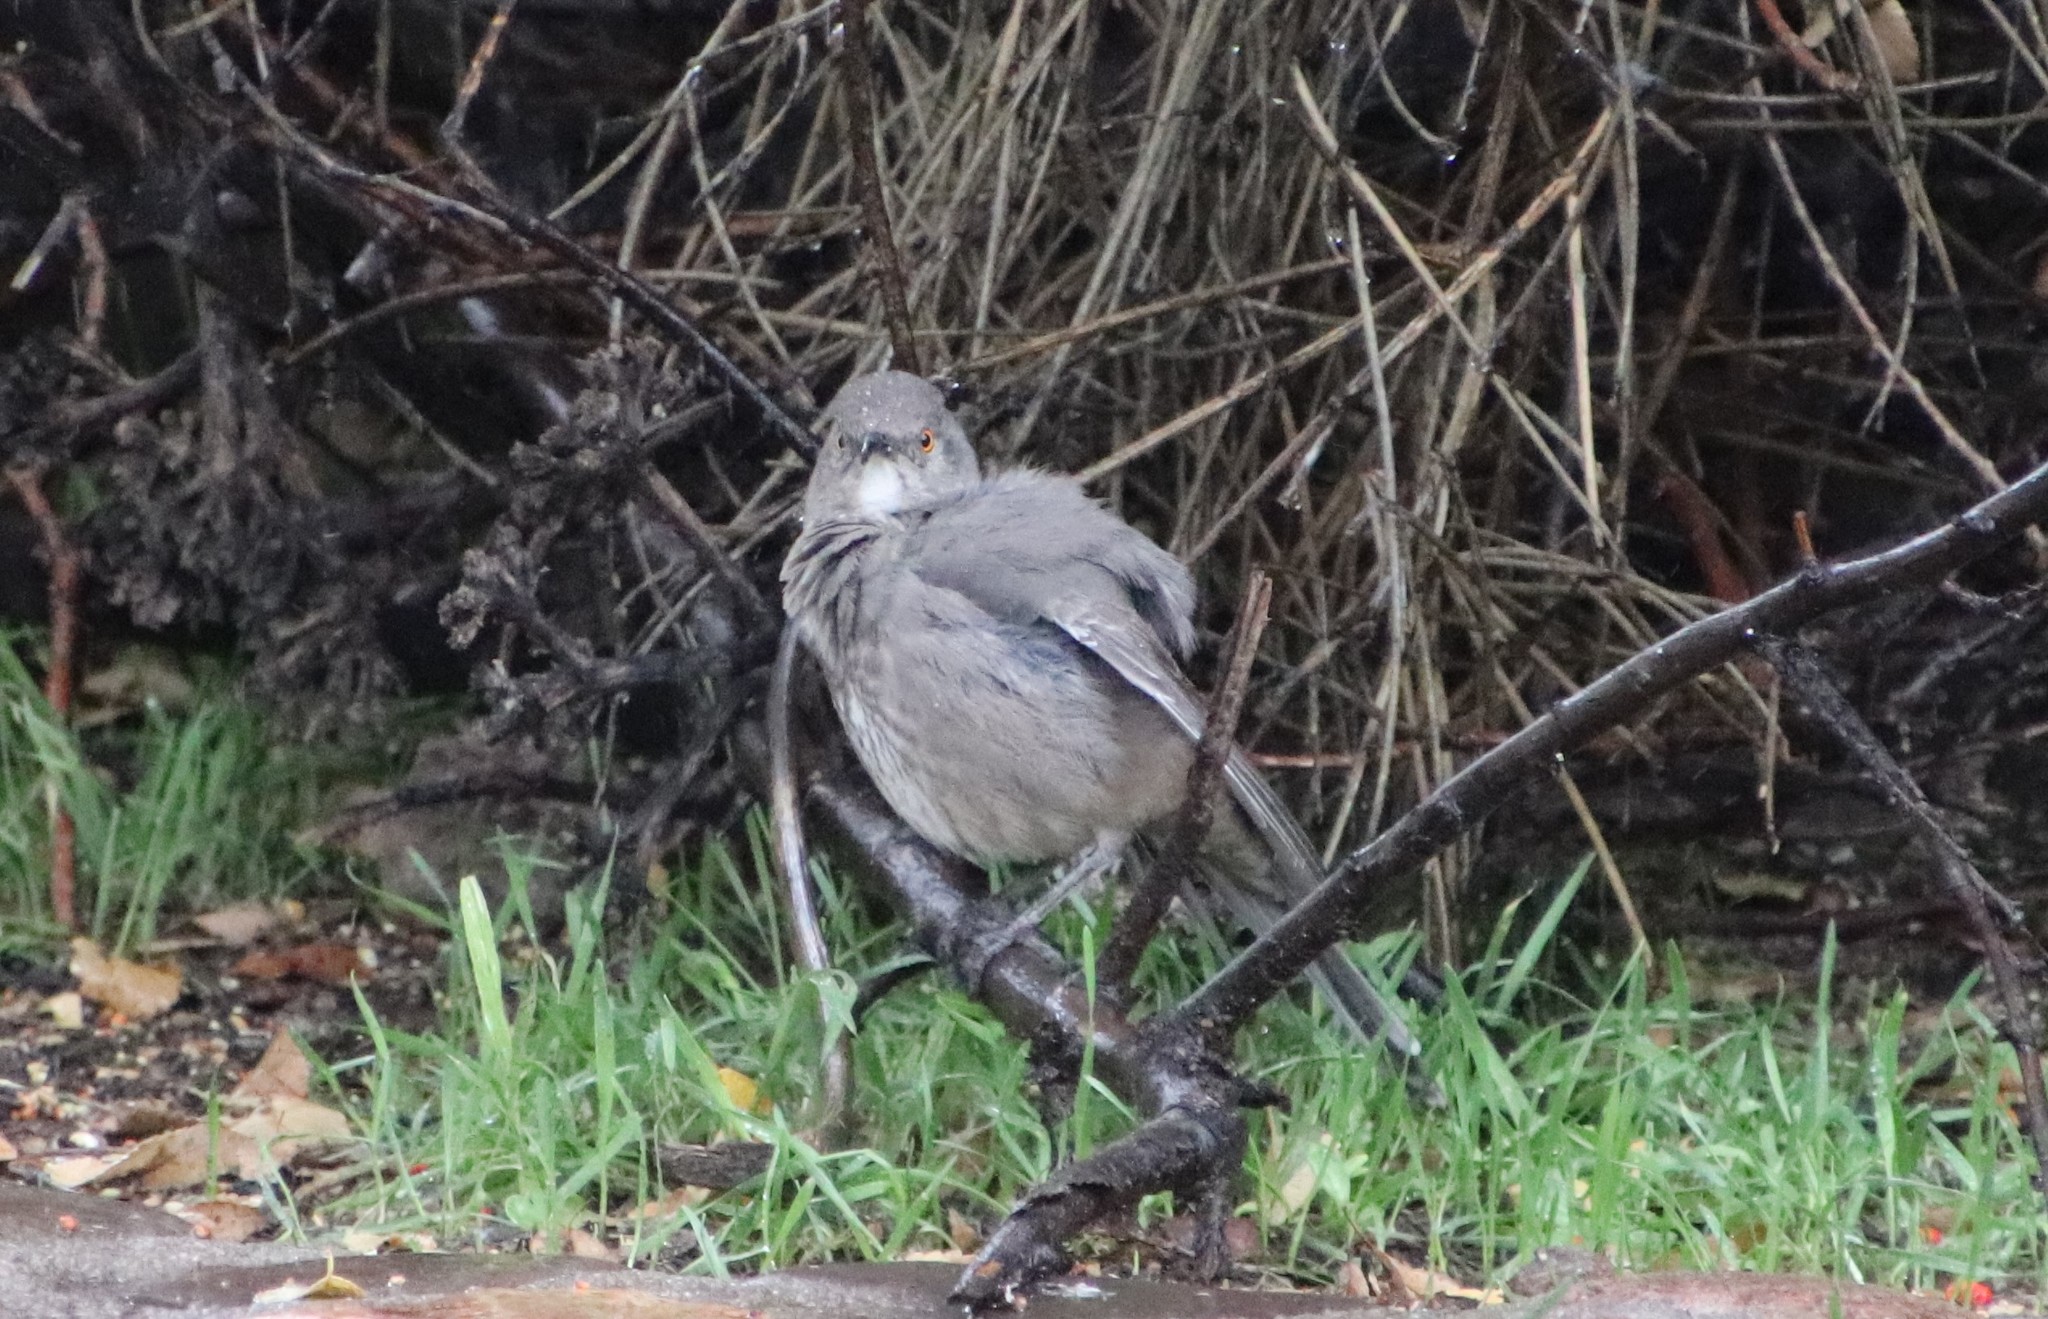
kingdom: Animalia
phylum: Chordata
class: Aves
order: Passeriformes
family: Mimidae
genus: Toxostoma
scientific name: Toxostoma curvirostre
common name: Curve-billed thrasher
